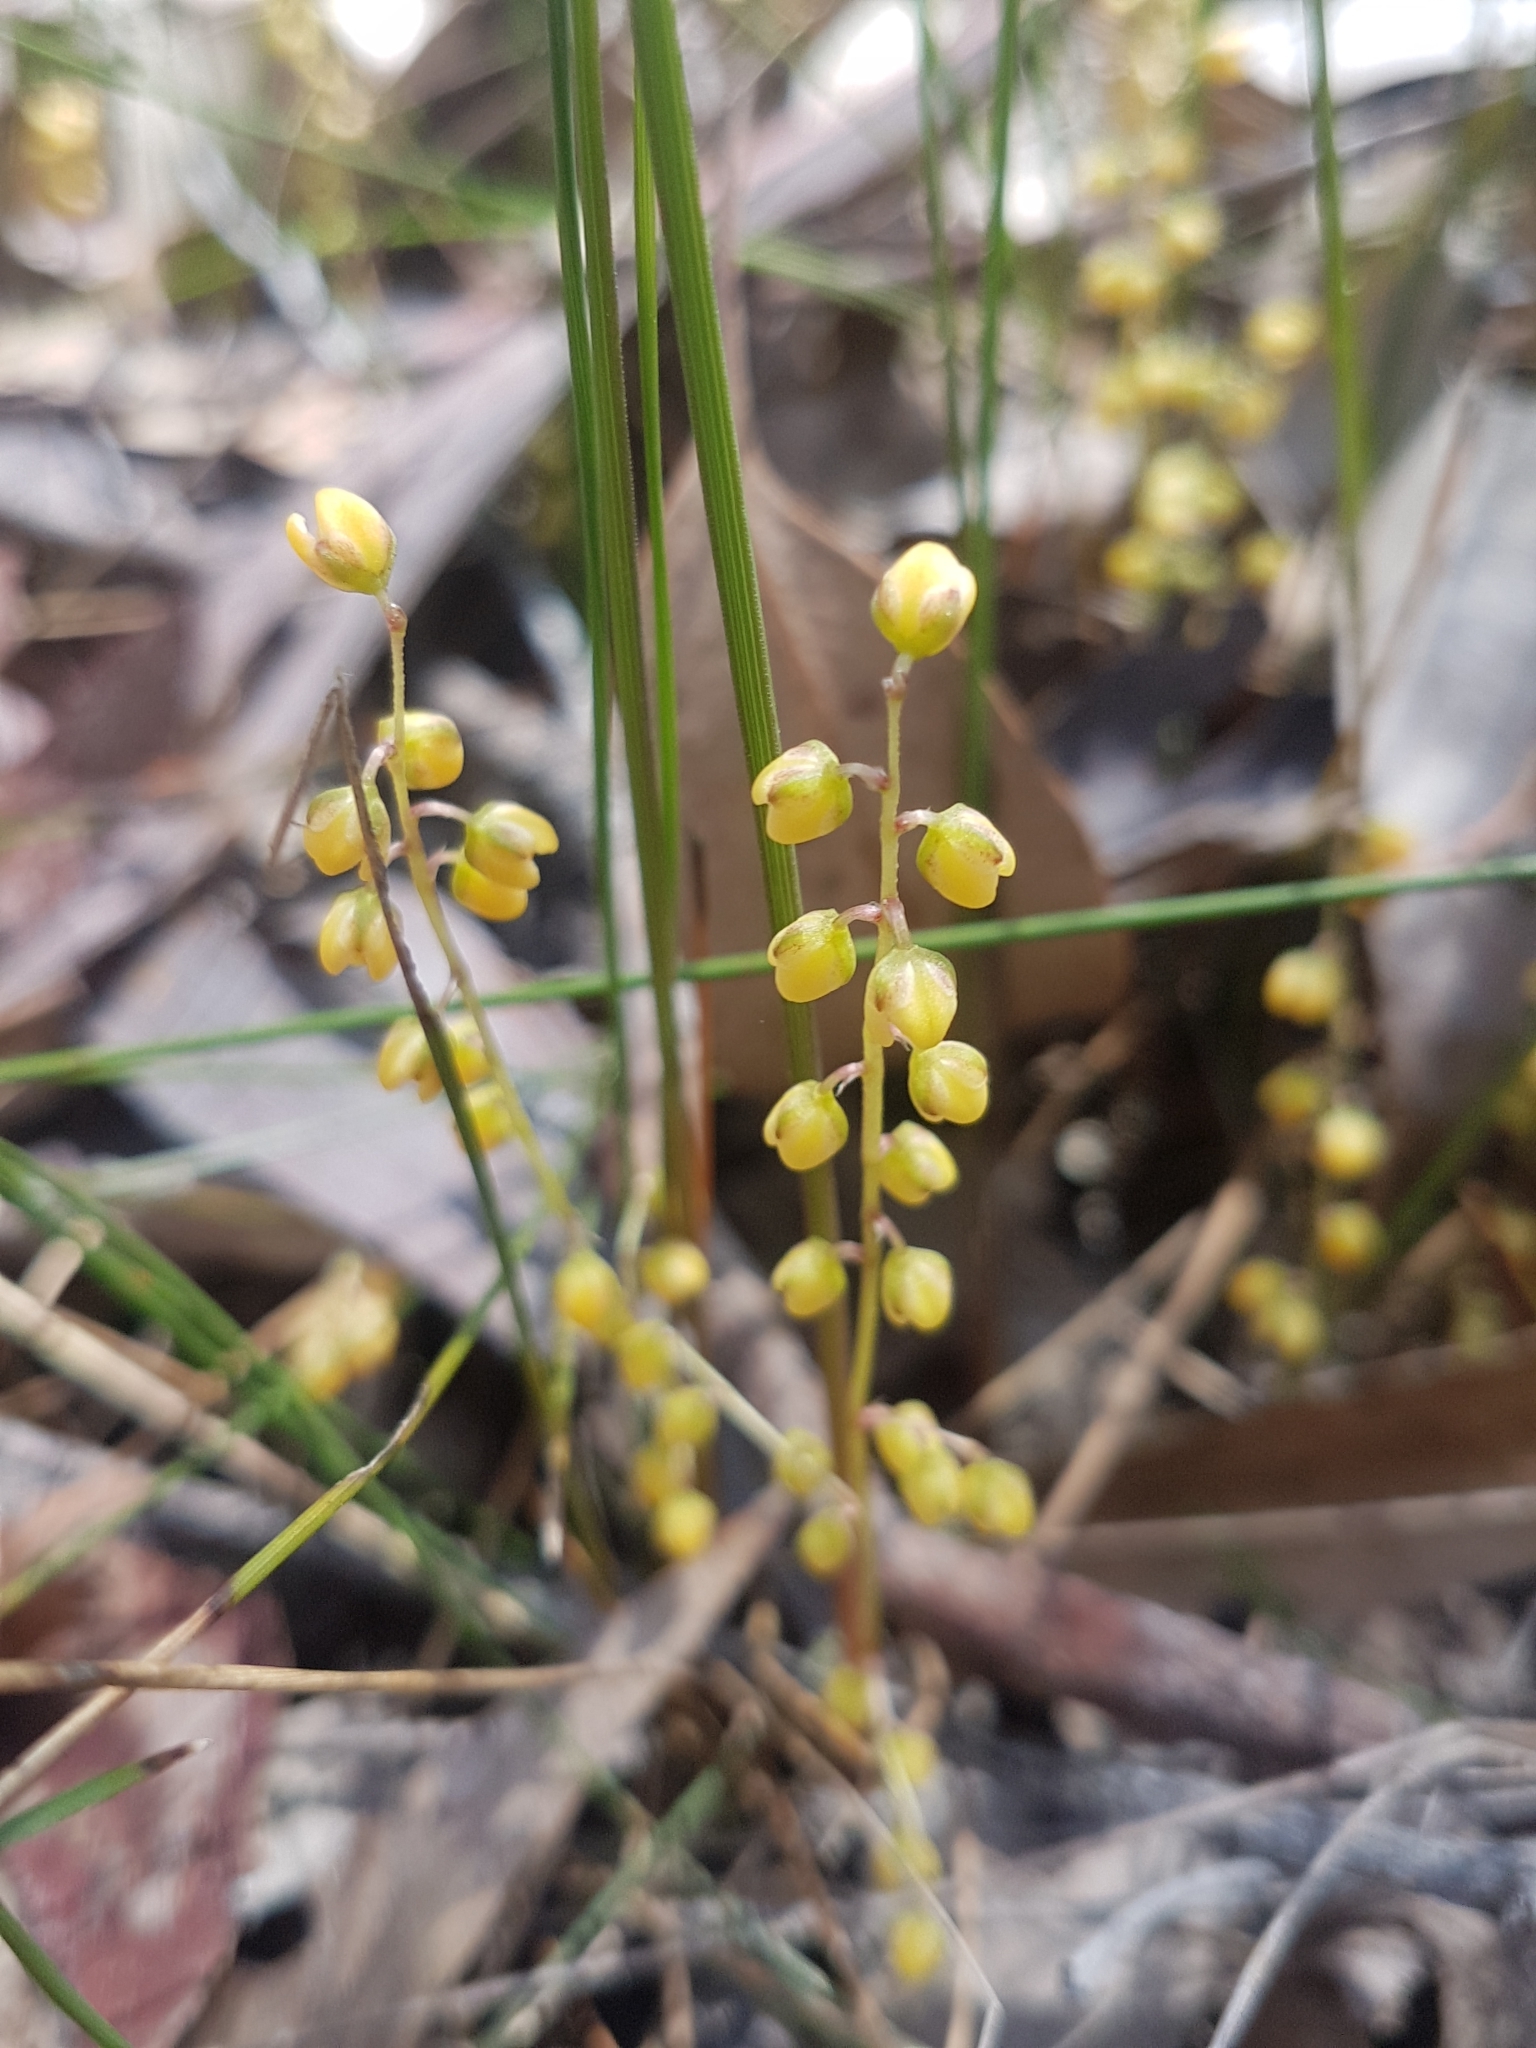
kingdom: Plantae
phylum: Tracheophyta
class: Liliopsida
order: Asparagales
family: Asparagaceae
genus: Lomandra
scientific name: Lomandra filiformis
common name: Wattle mat-rush
